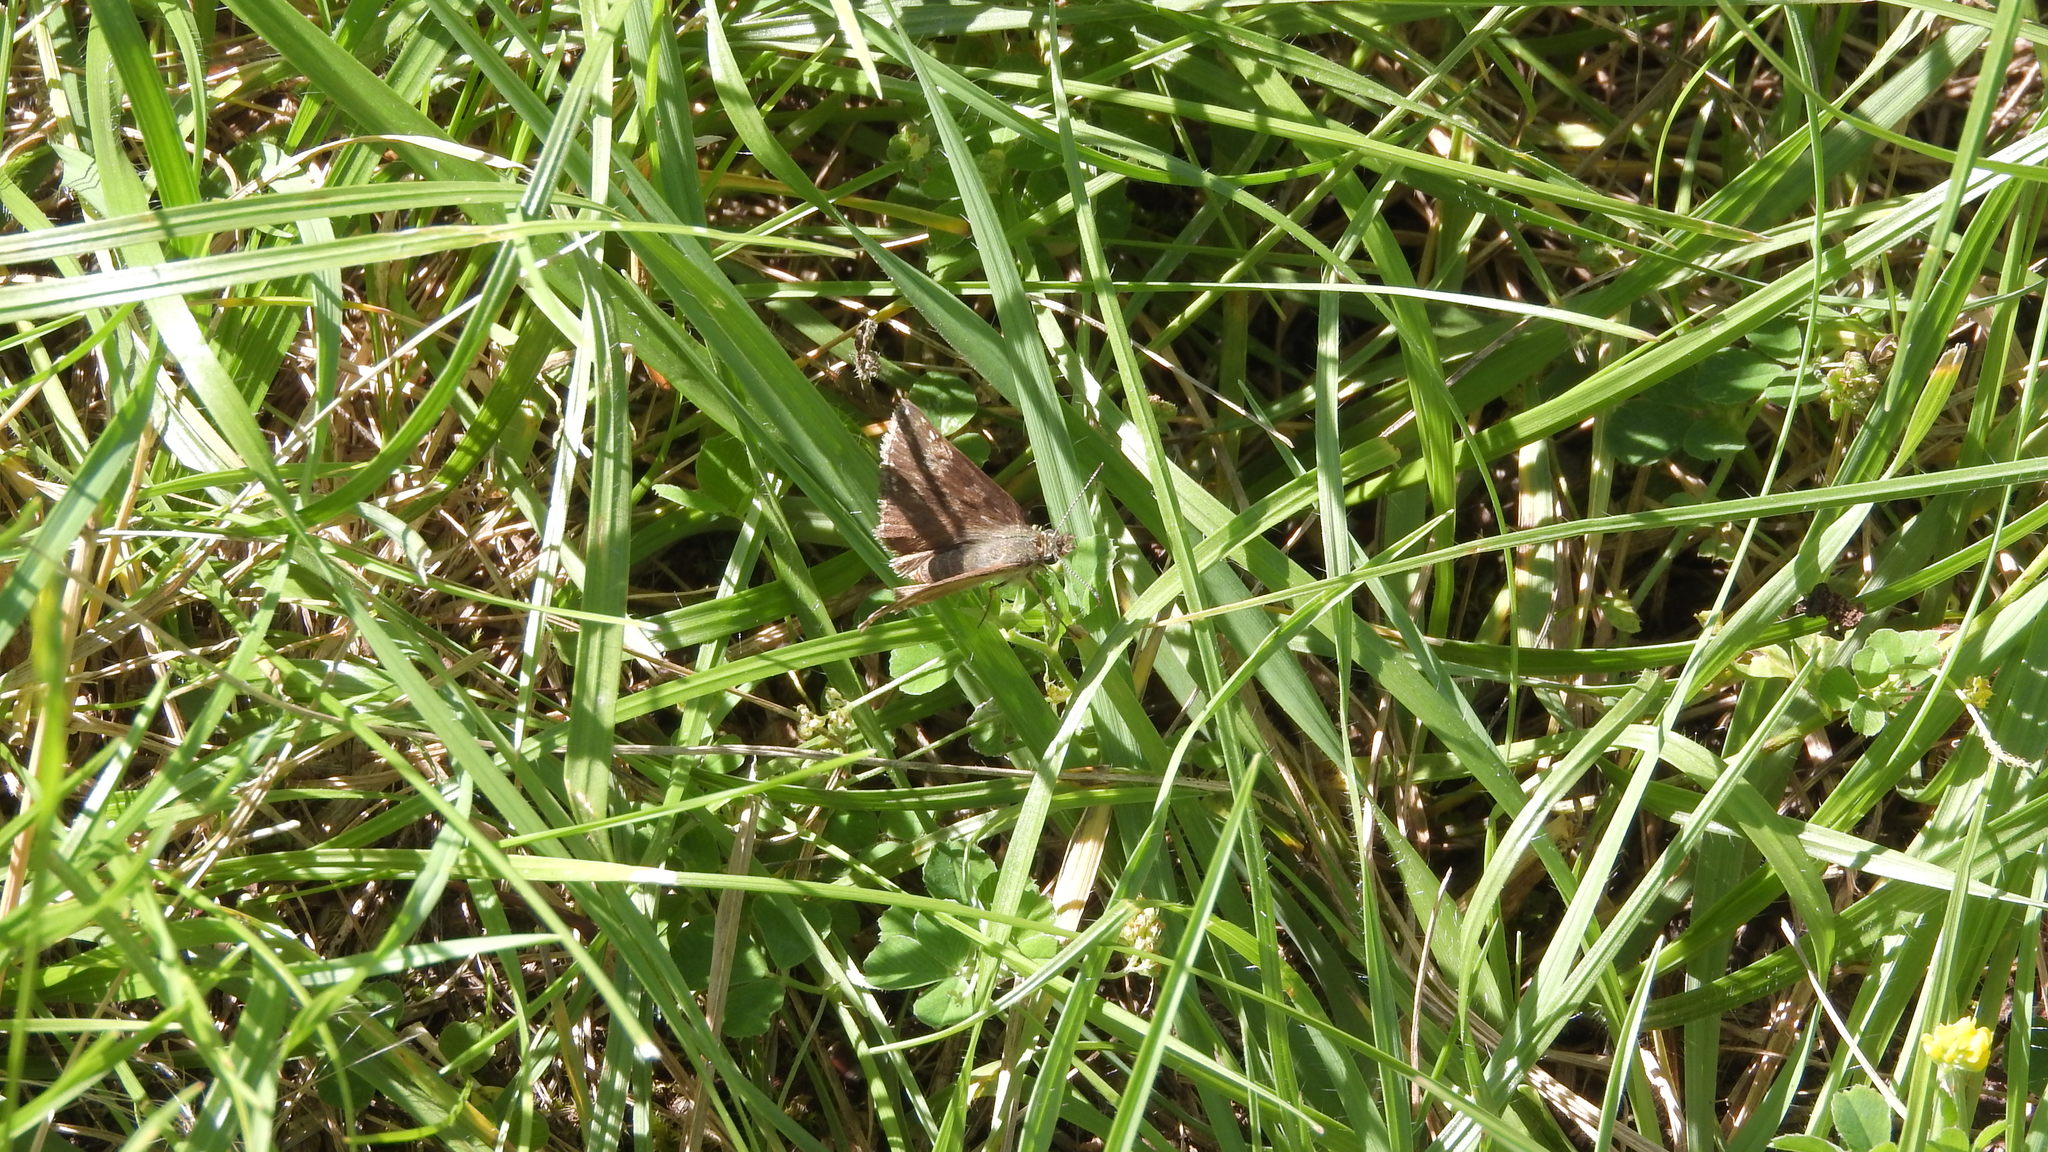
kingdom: Animalia
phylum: Arthropoda
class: Insecta
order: Lepidoptera
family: Hesperiidae
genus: Erynnis
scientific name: Erynnis tages
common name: Dingy skipper
